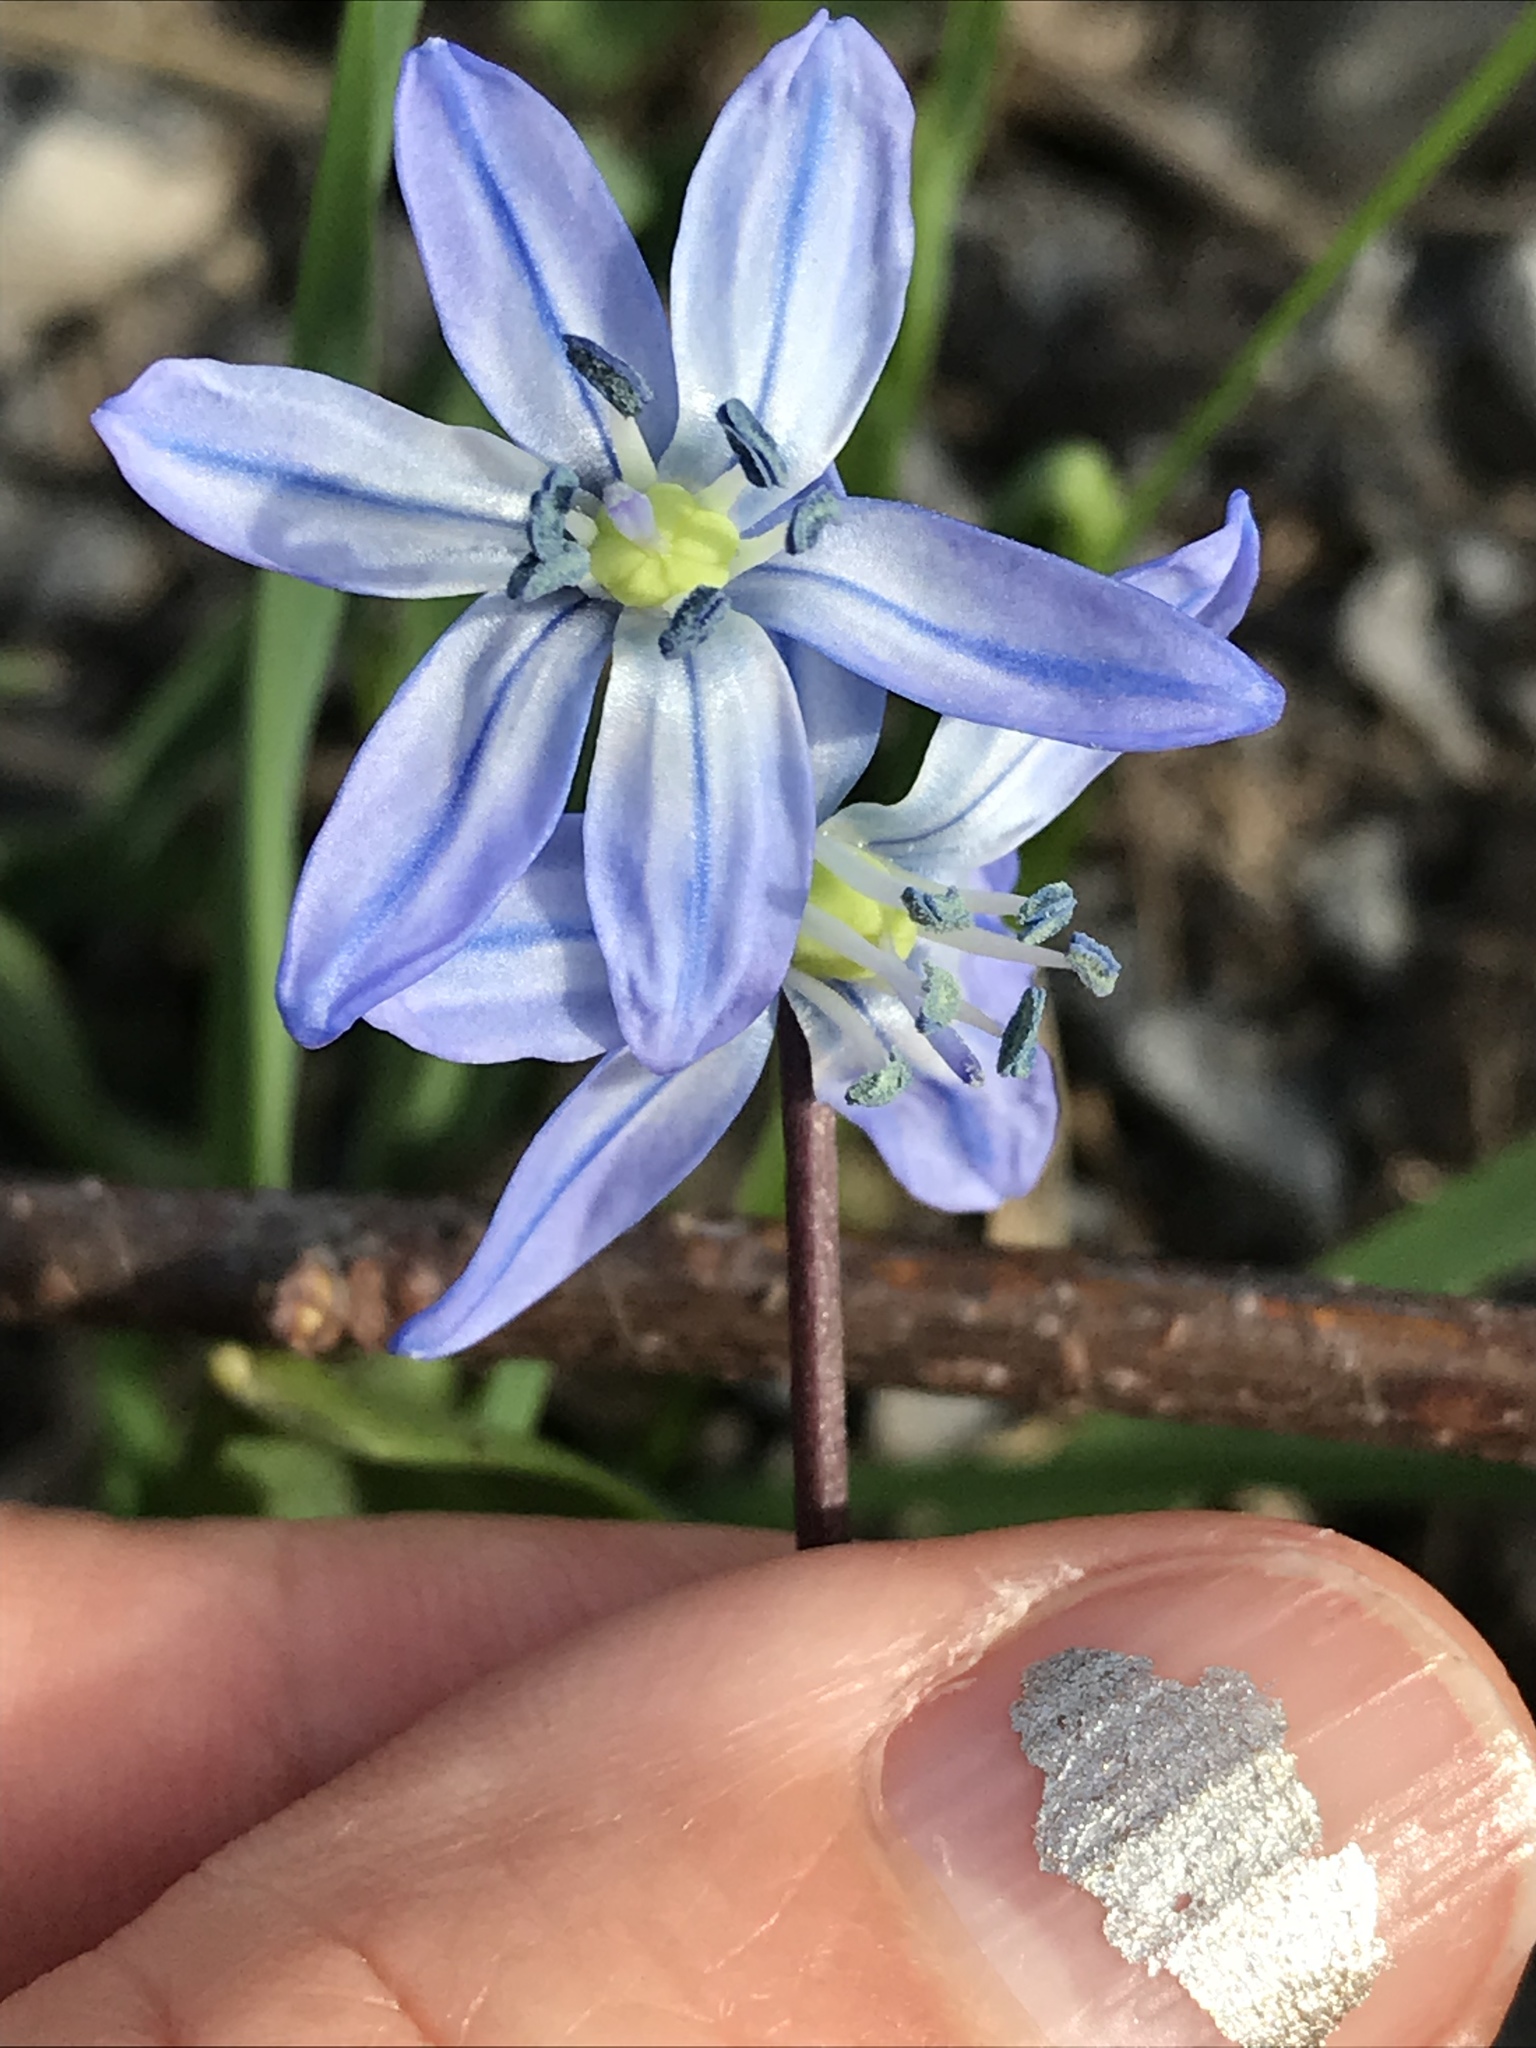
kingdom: Plantae
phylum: Tracheophyta
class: Liliopsida
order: Asparagales
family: Asparagaceae
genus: Scilla
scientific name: Scilla siberica
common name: Siberian squill
